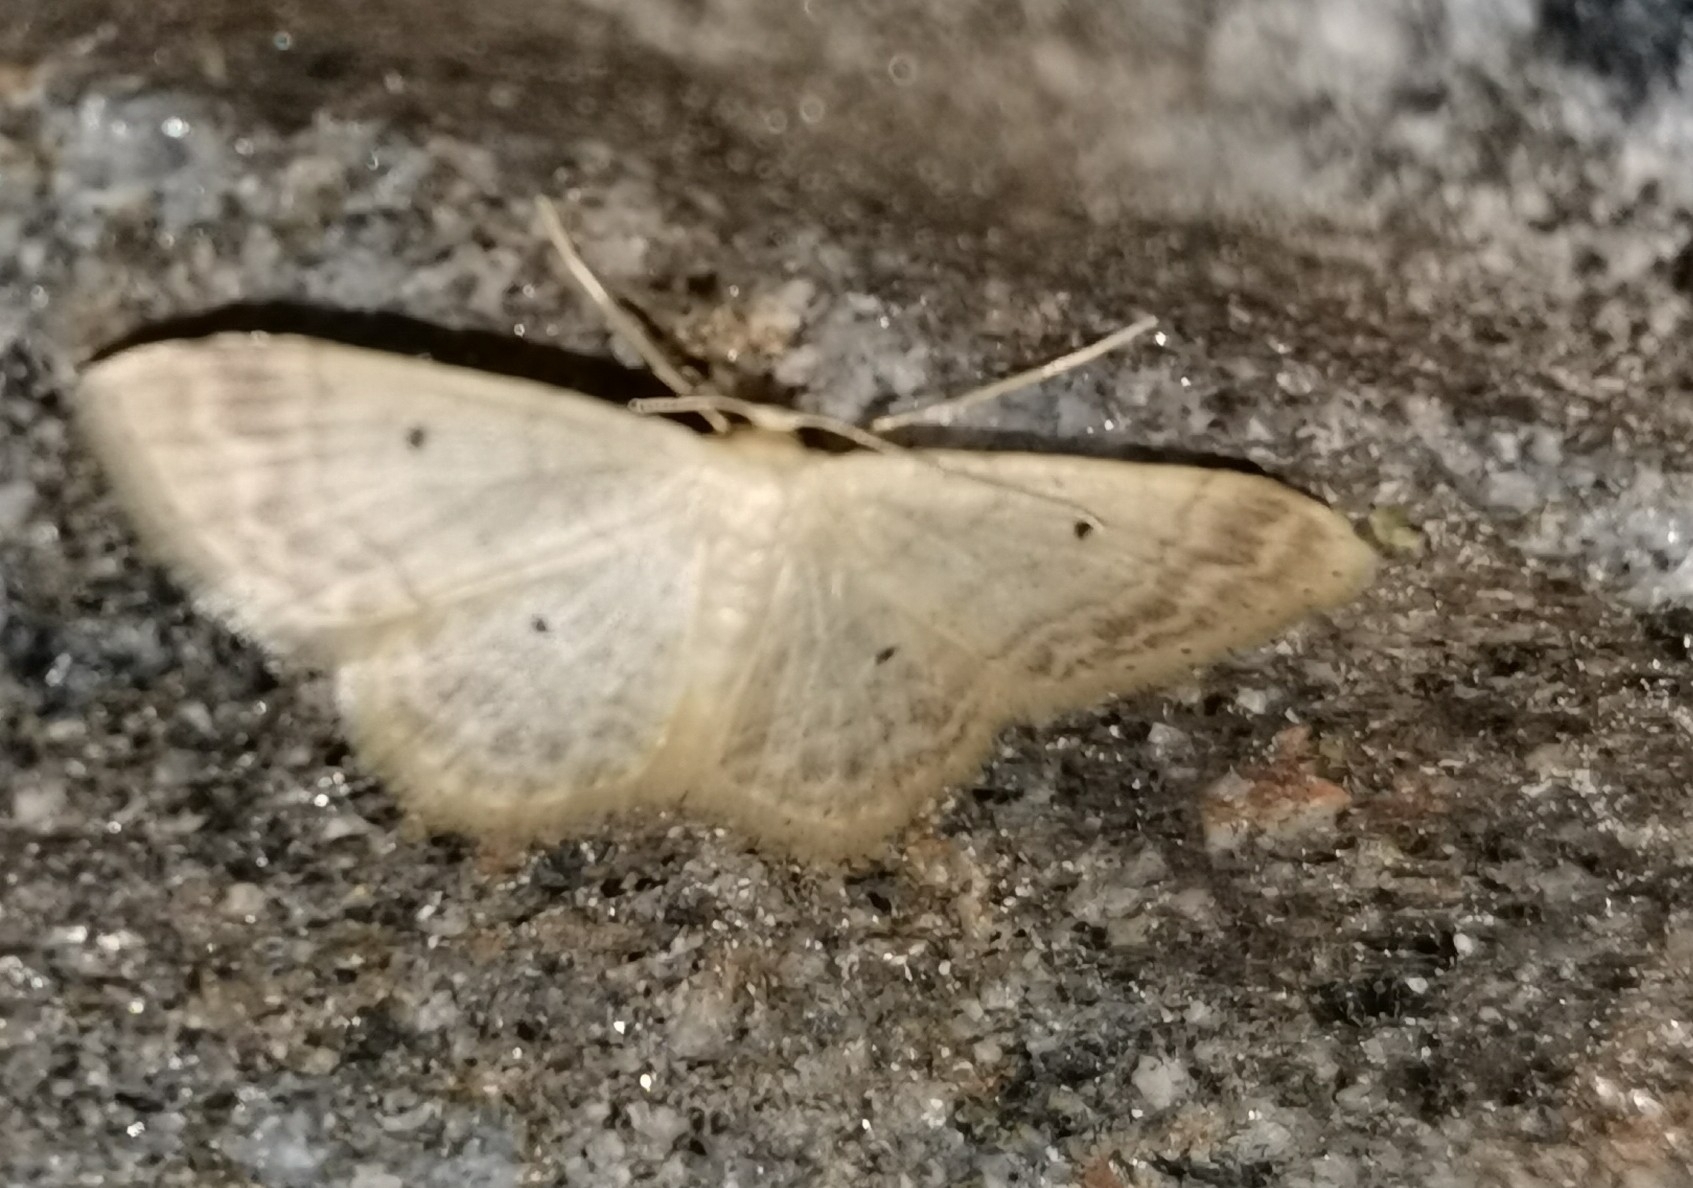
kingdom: Animalia
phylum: Arthropoda
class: Insecta
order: Lepidoptera
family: Geometridae
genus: Idaea
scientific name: Idaea biselata
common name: Small fan-footed wave
